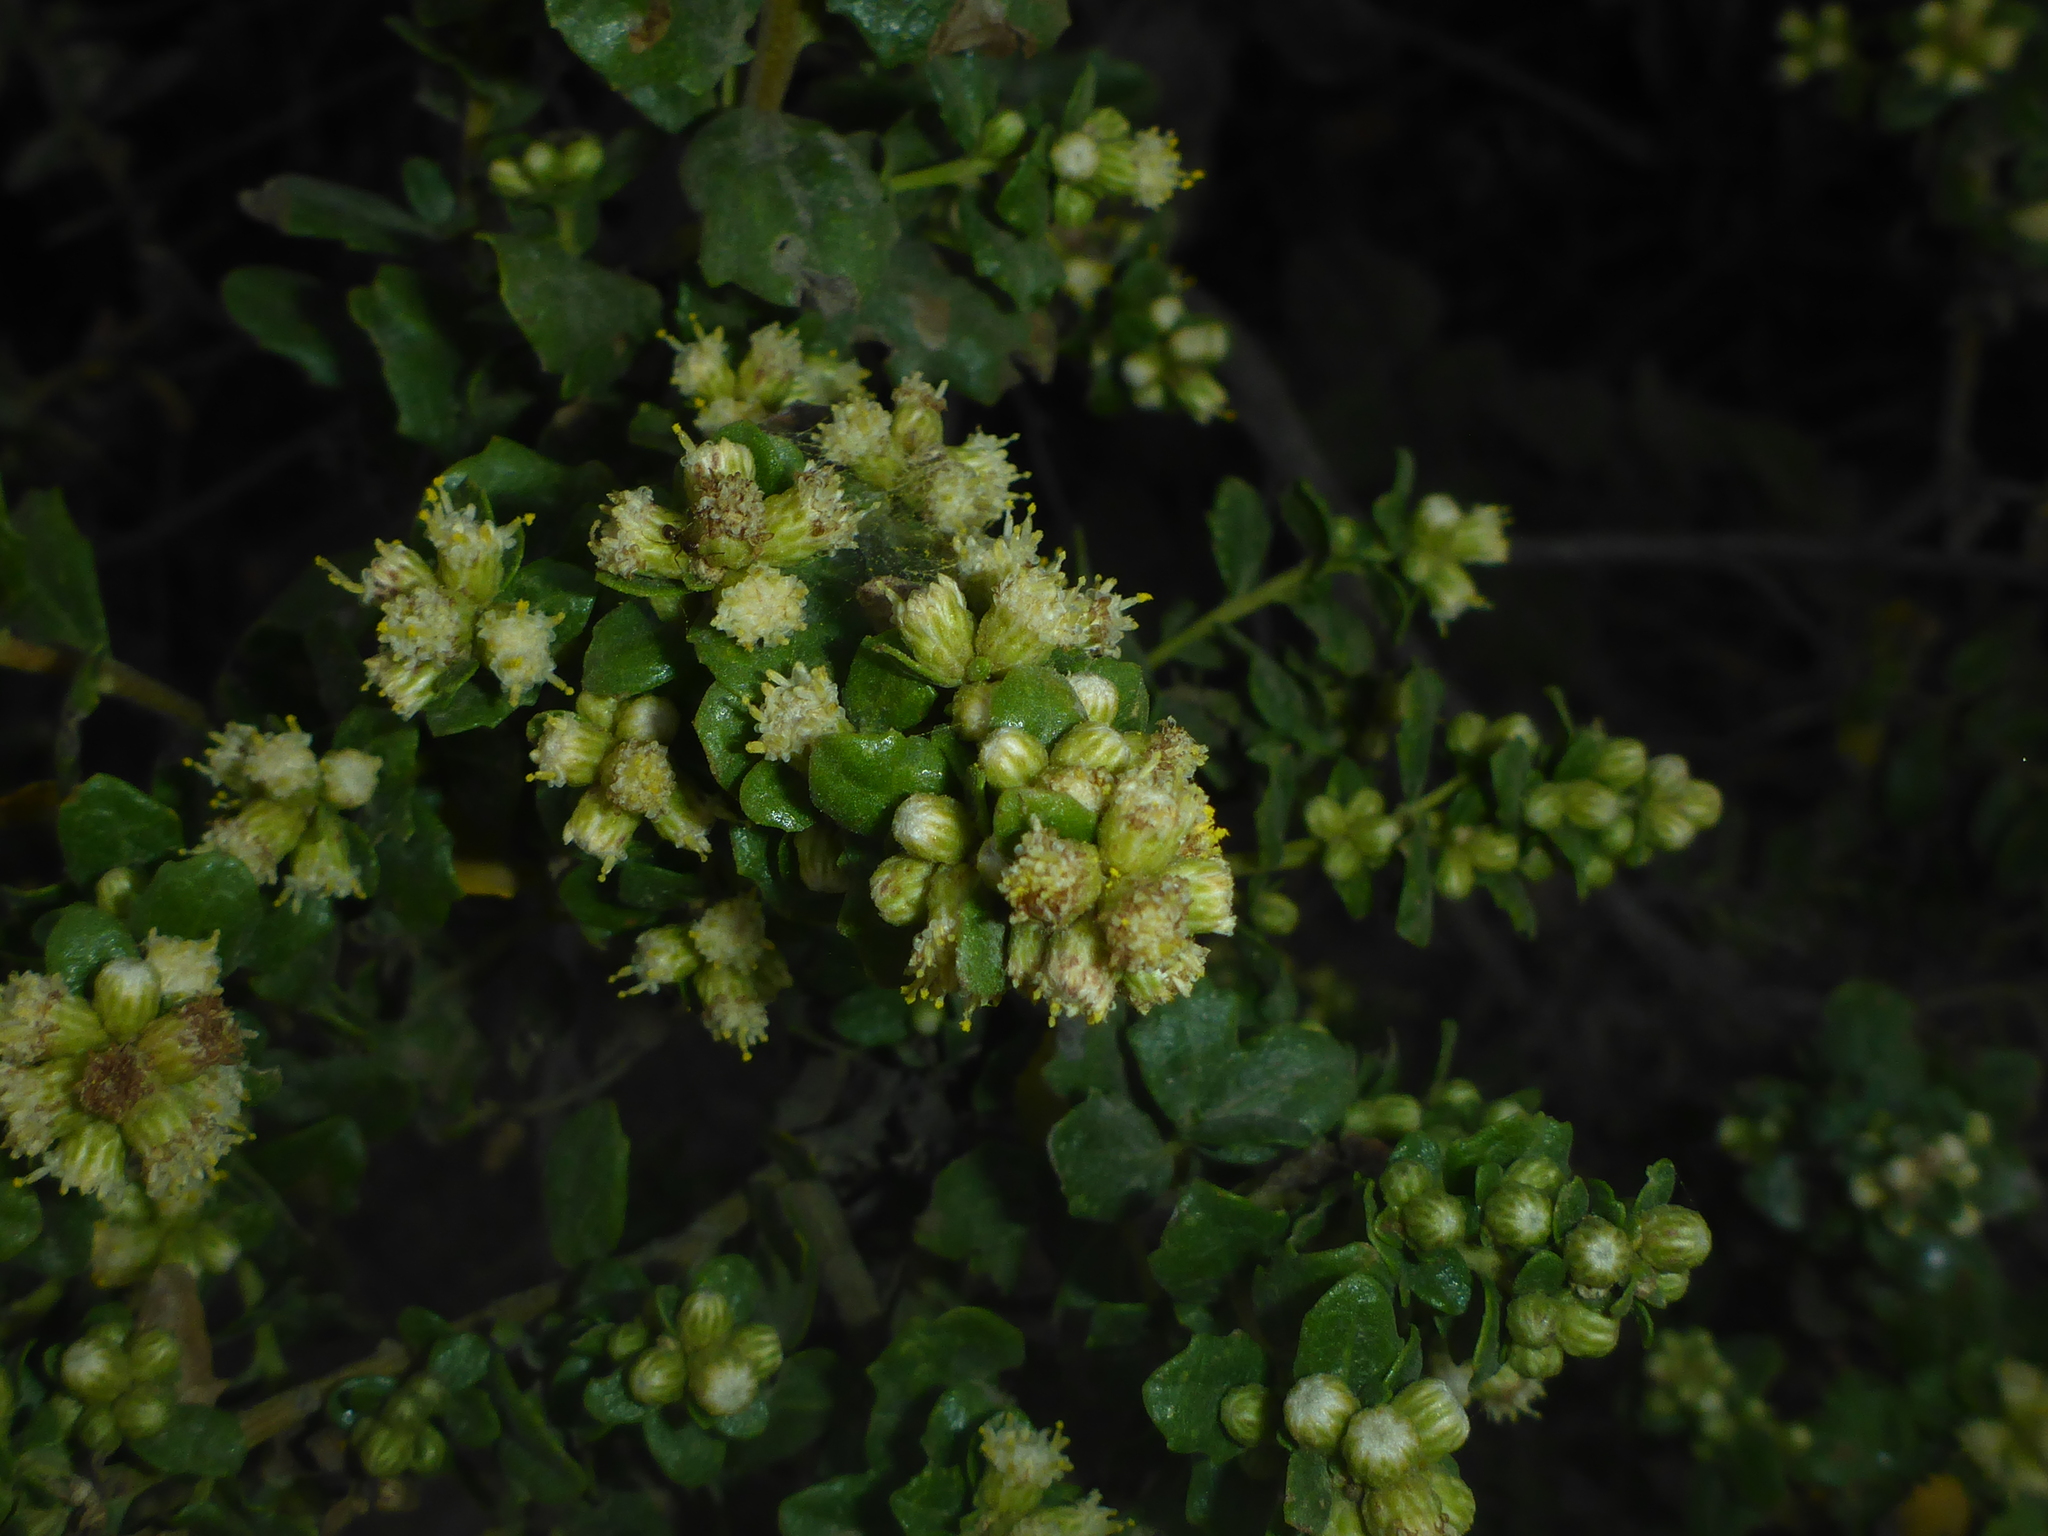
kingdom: Plantae
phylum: Tracheophyta
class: Magnoliopsida
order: Asterales
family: Asteraceae
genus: Baccharis
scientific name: Baccharis pilularis
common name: Coyotebrush
